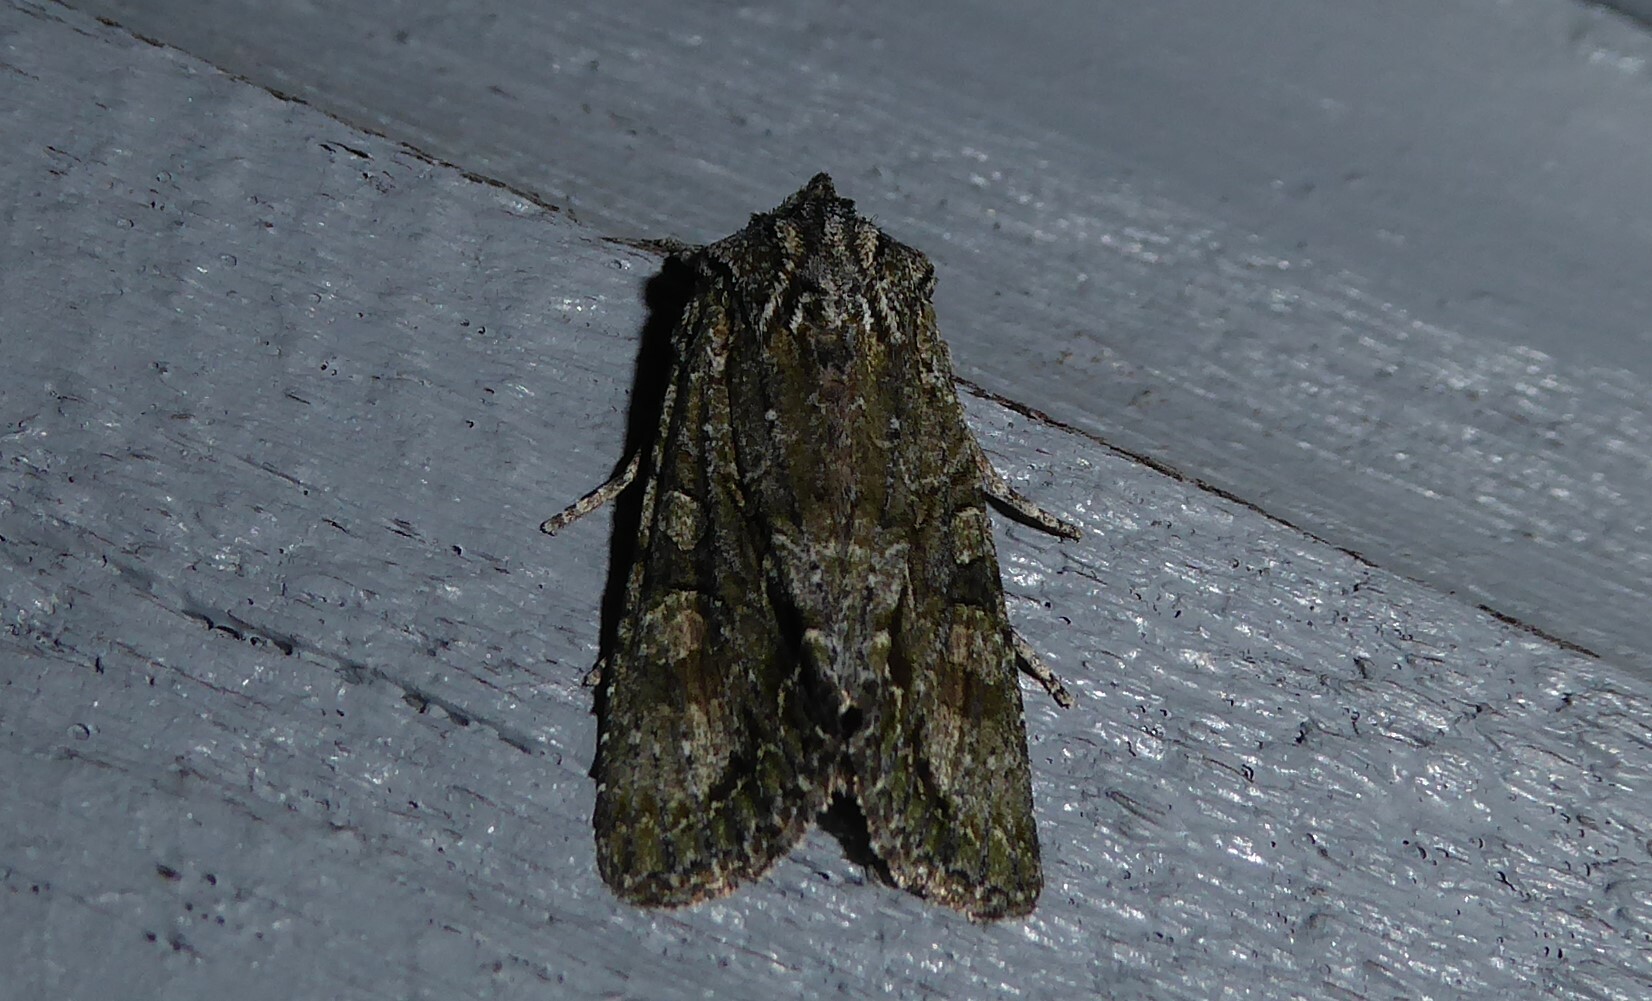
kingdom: Animalia
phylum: Arthropoda
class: Insecta
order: Lepidoptera
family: Noctuidae
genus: Ichneutica
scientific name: Ichneutica mutans
